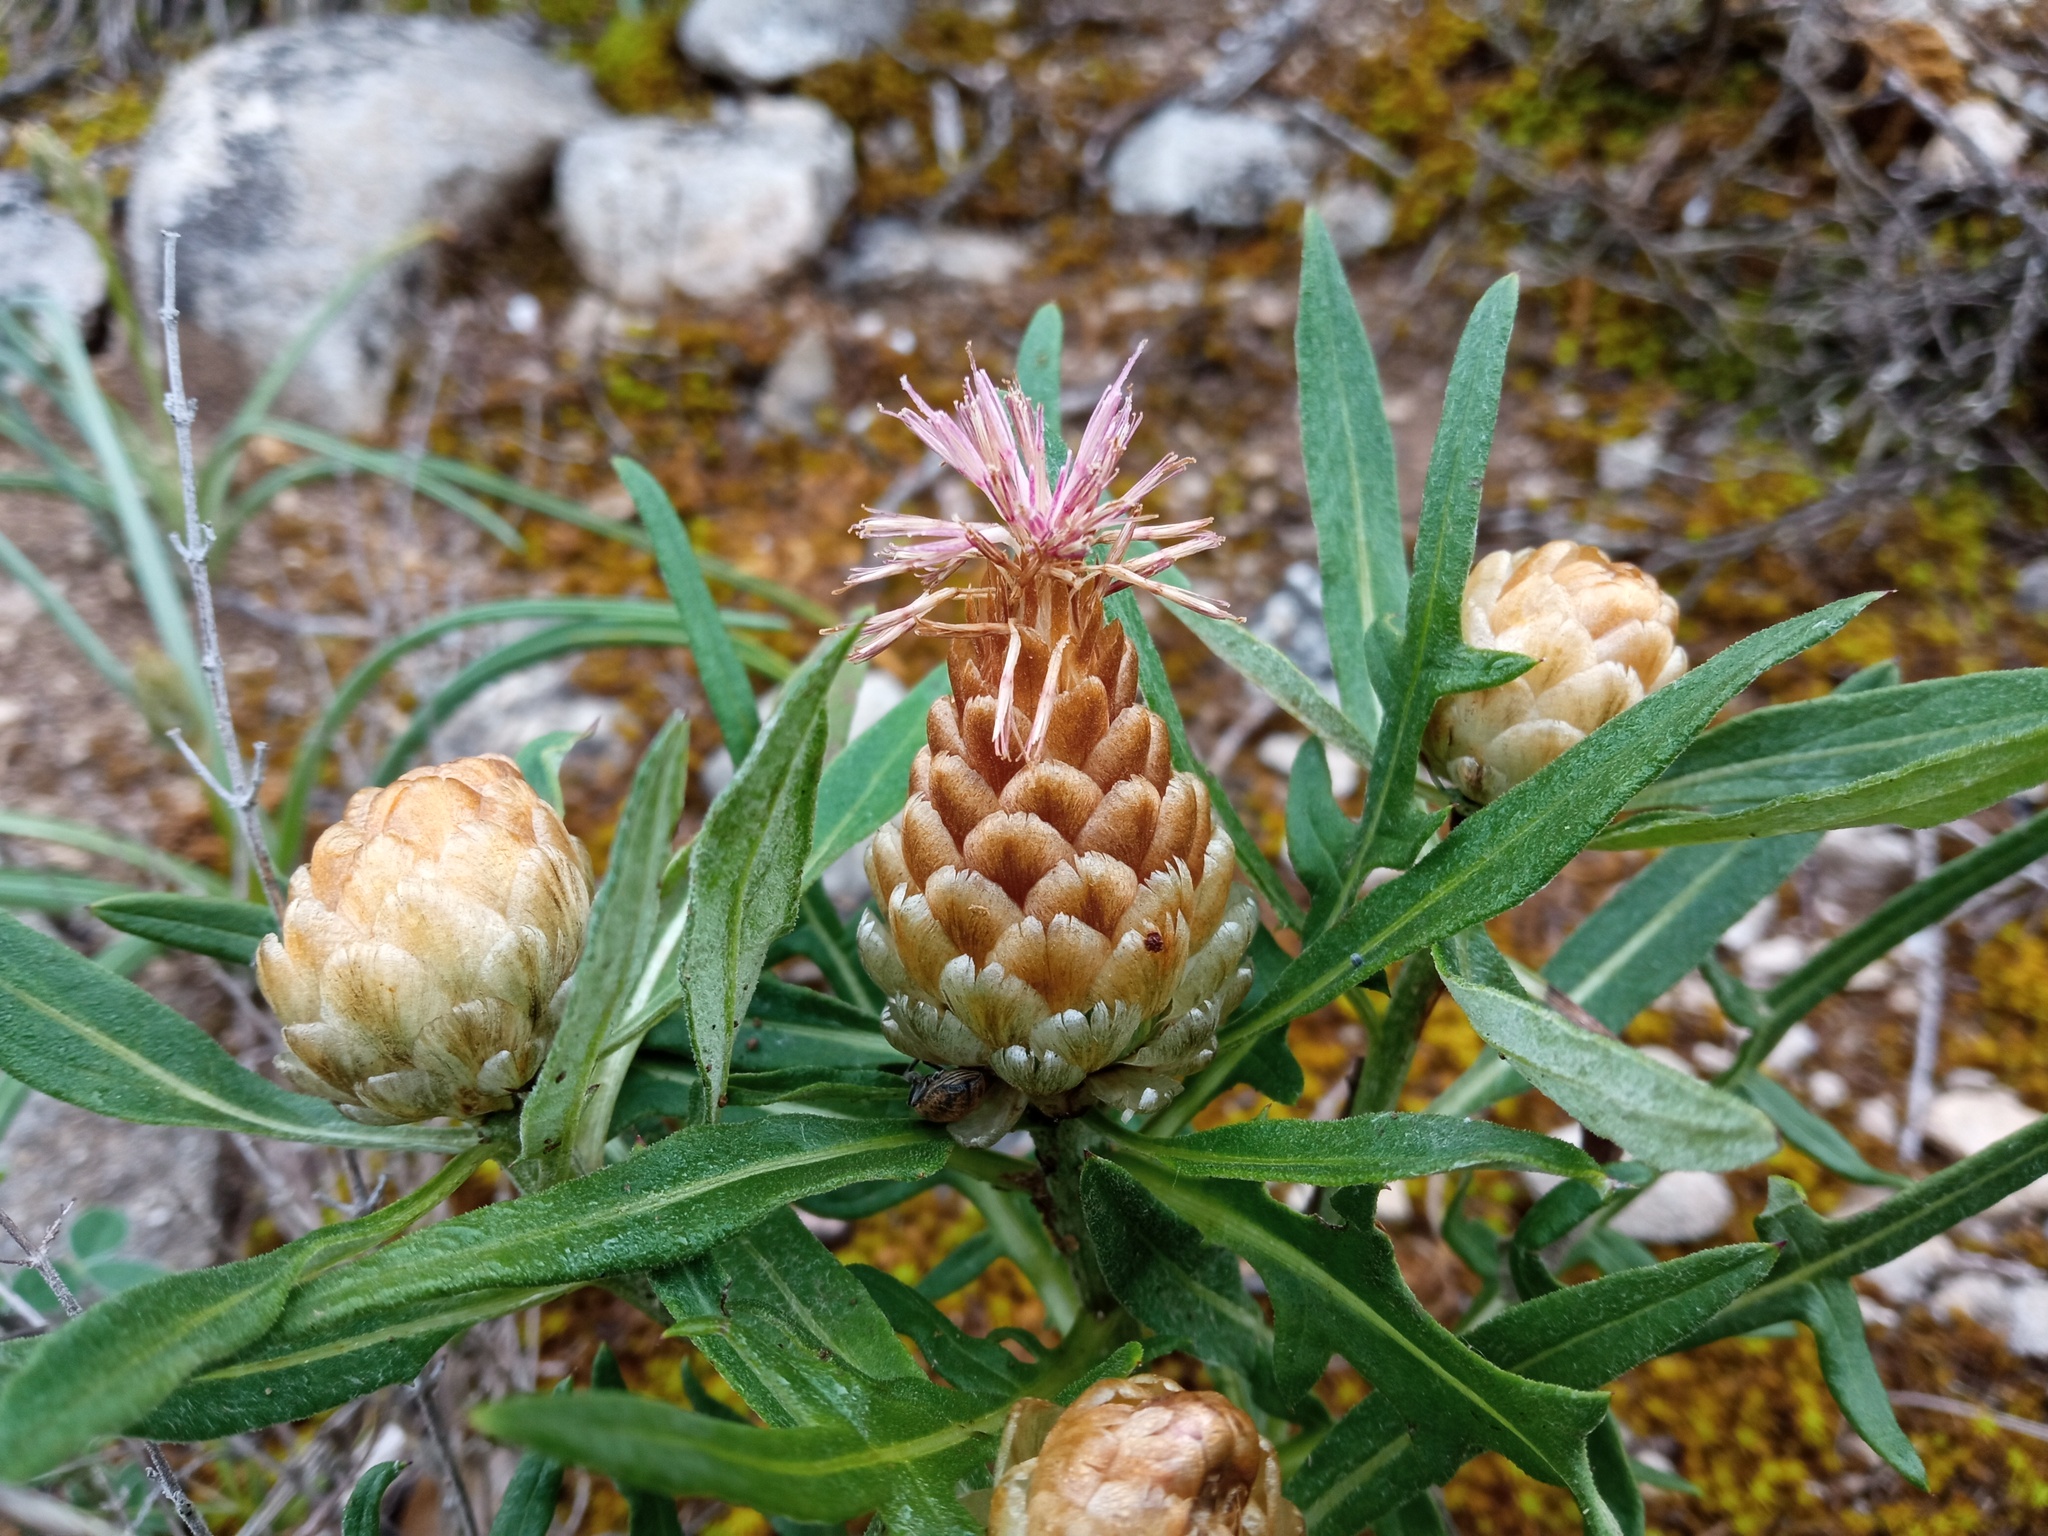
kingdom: Plantae
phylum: Tracheophyta
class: Magnoliopsida
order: Asterales
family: Asteraceae
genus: Leuzea
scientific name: Leuzea conifera
